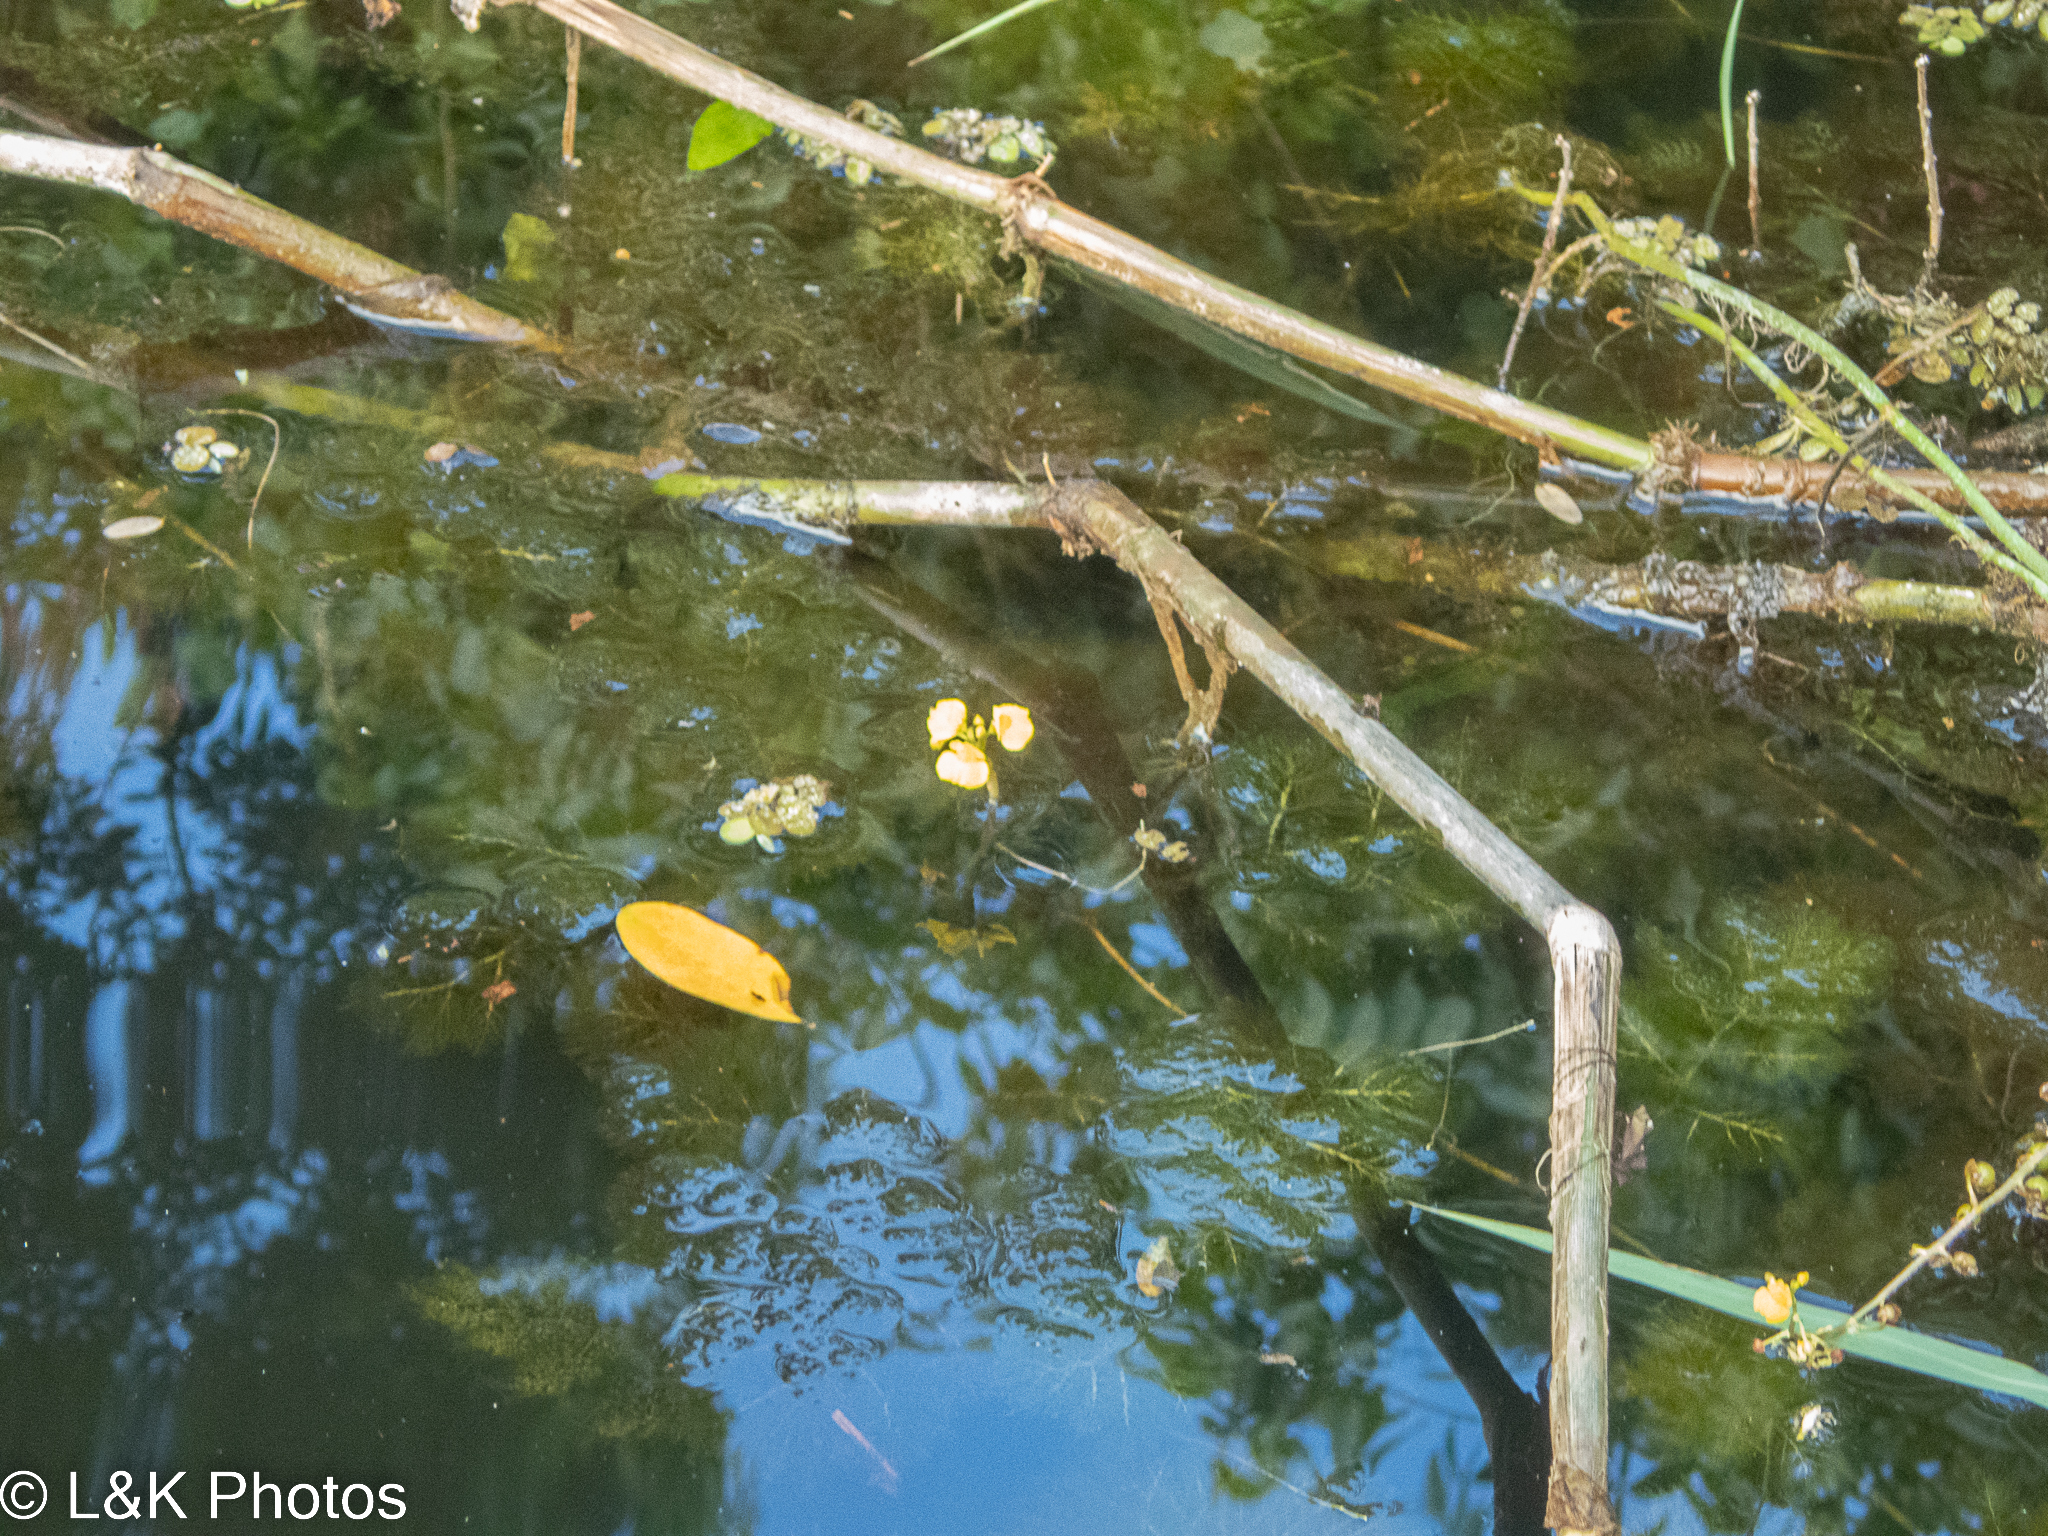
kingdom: Plantae
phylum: Tracheophyta
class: Magnoliopsida
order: Lamiales
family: Lentibulariaceae
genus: Utricularia
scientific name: Utricularia foliosa
